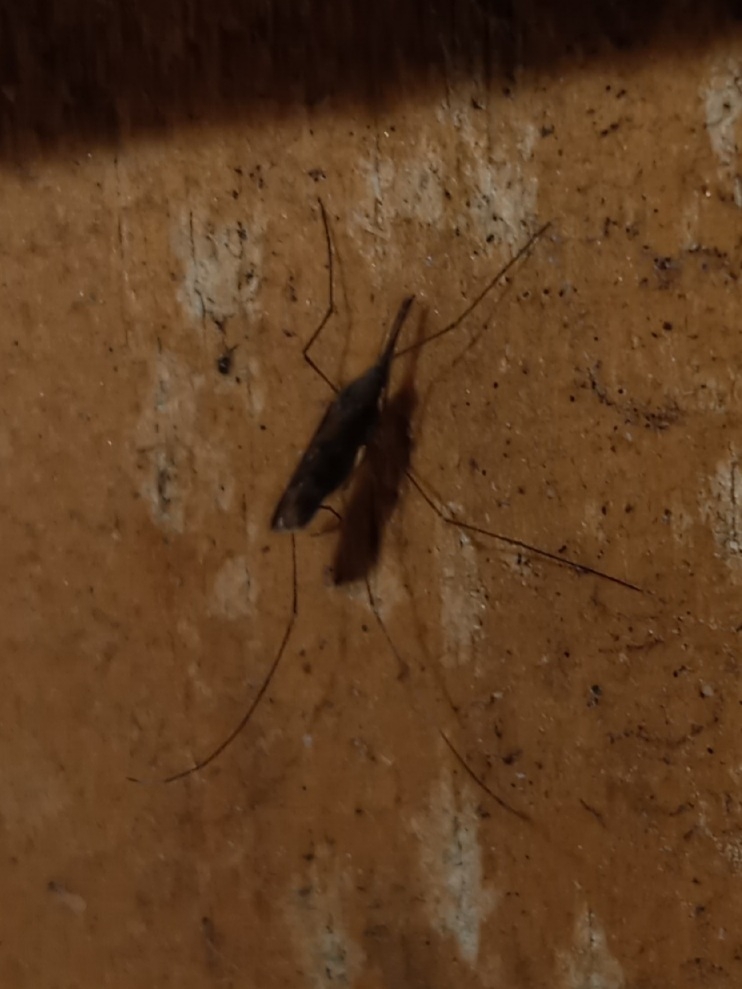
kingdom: Animalia
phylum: Arthropoda
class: Insecta
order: Diptera
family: Culicidae
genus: Anopheles
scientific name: Anopheles
